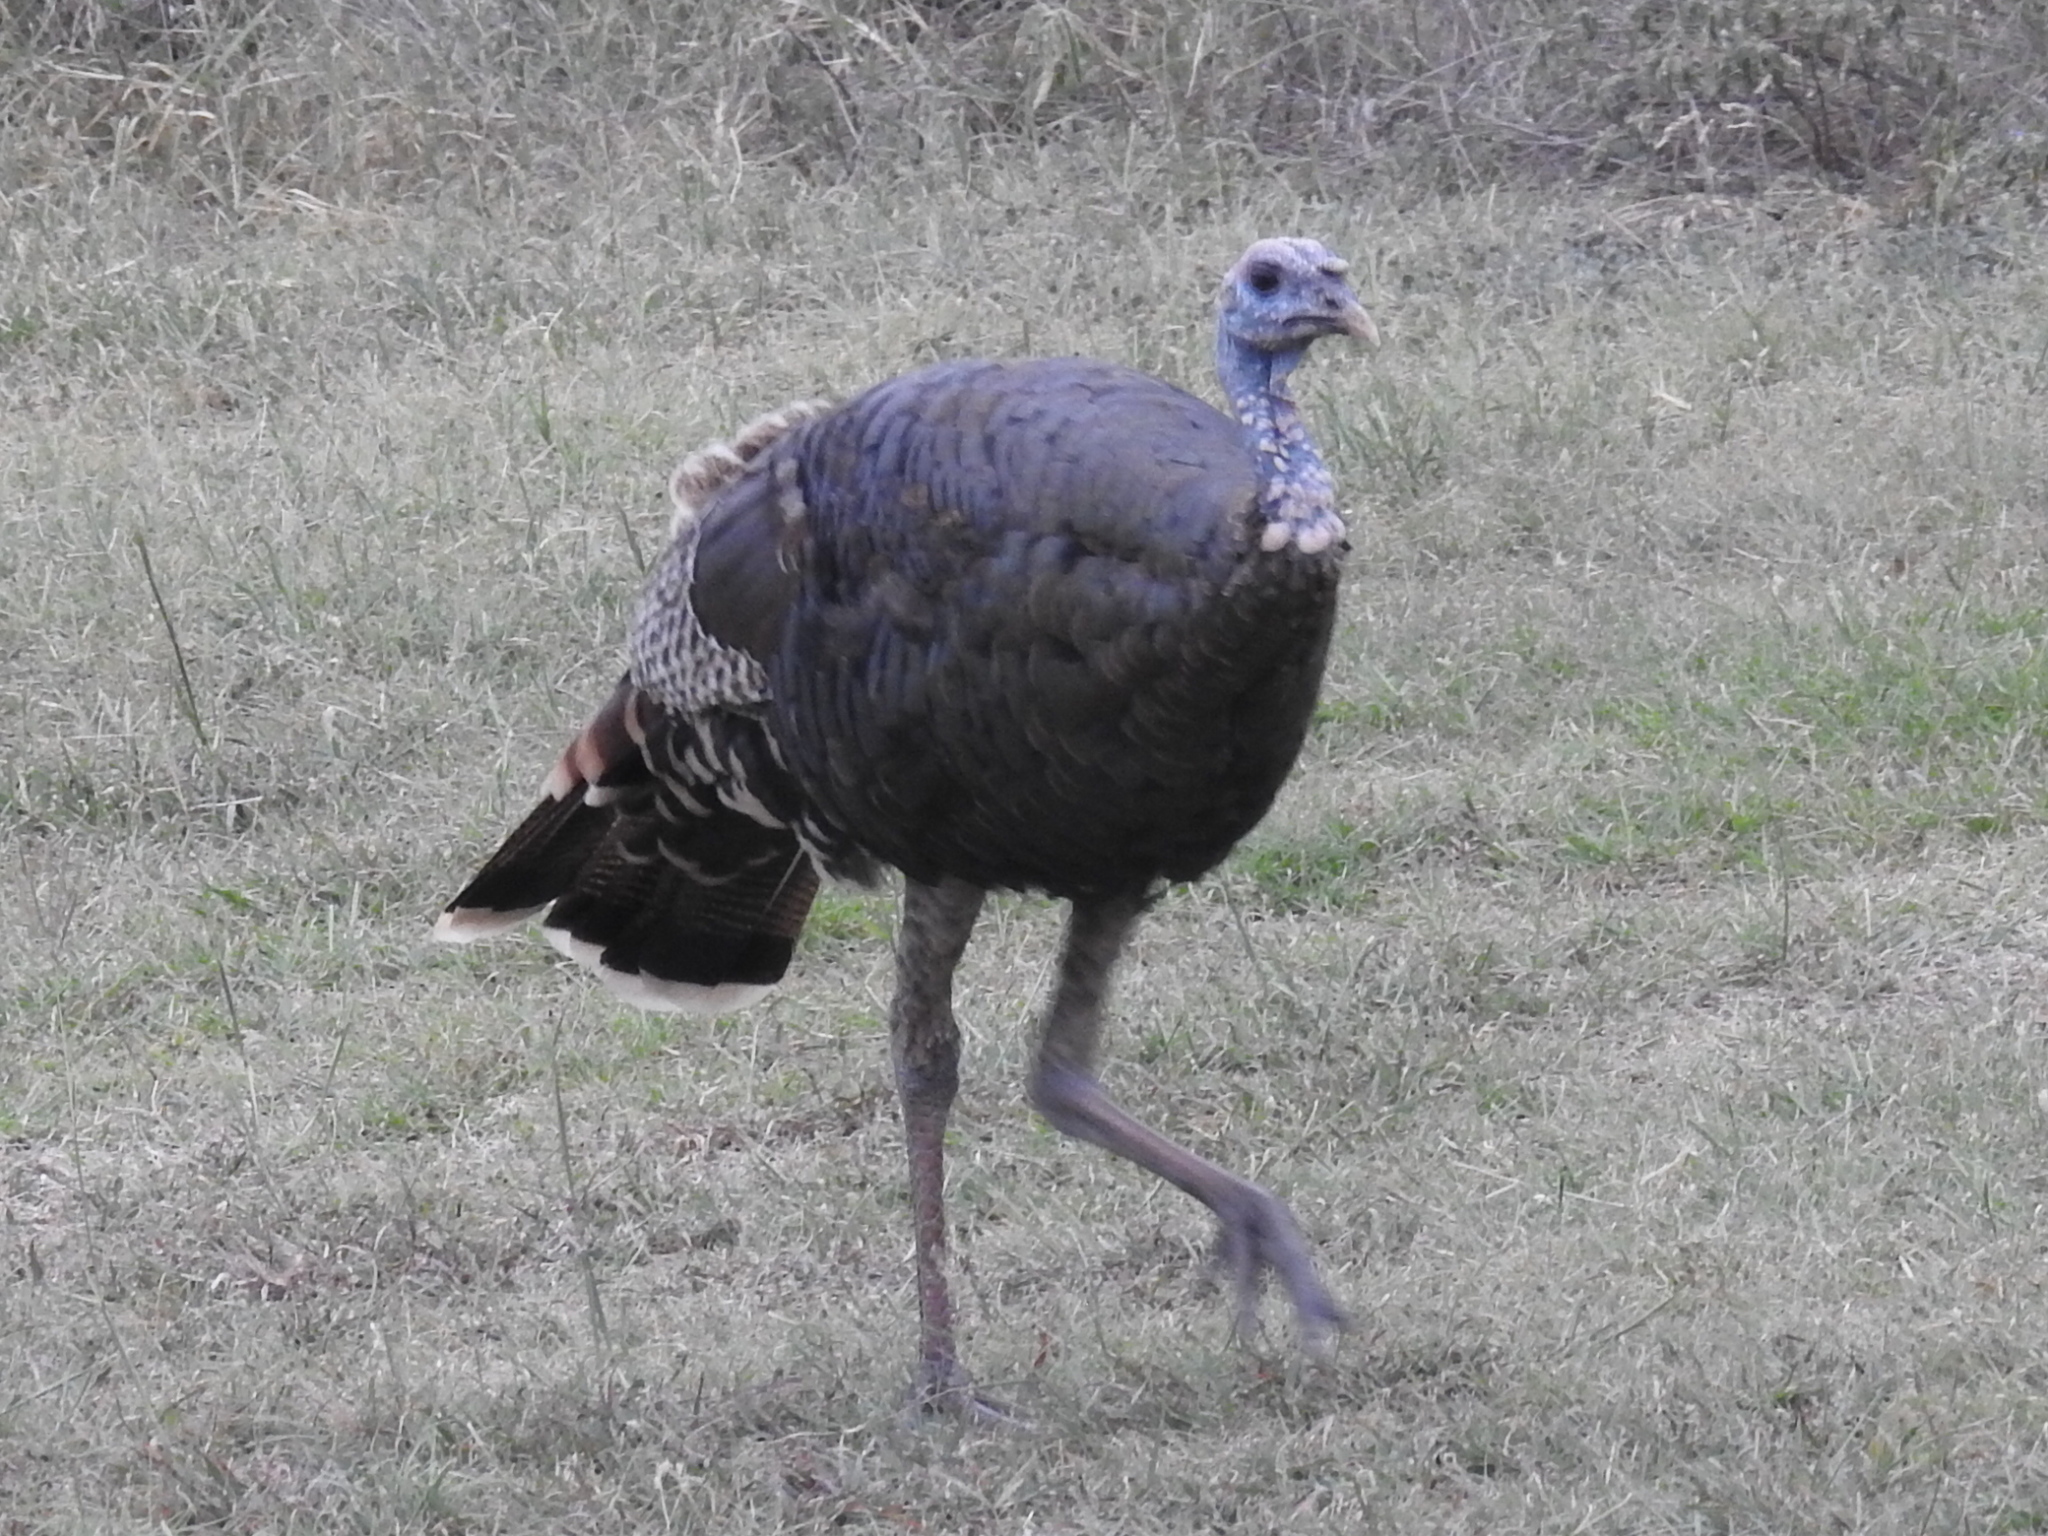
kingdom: Animalia
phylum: Chordata
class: Aves
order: Galliformes
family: Phasianidae
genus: Meleagris
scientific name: Meleagris gallopavo
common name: Wild turkey
